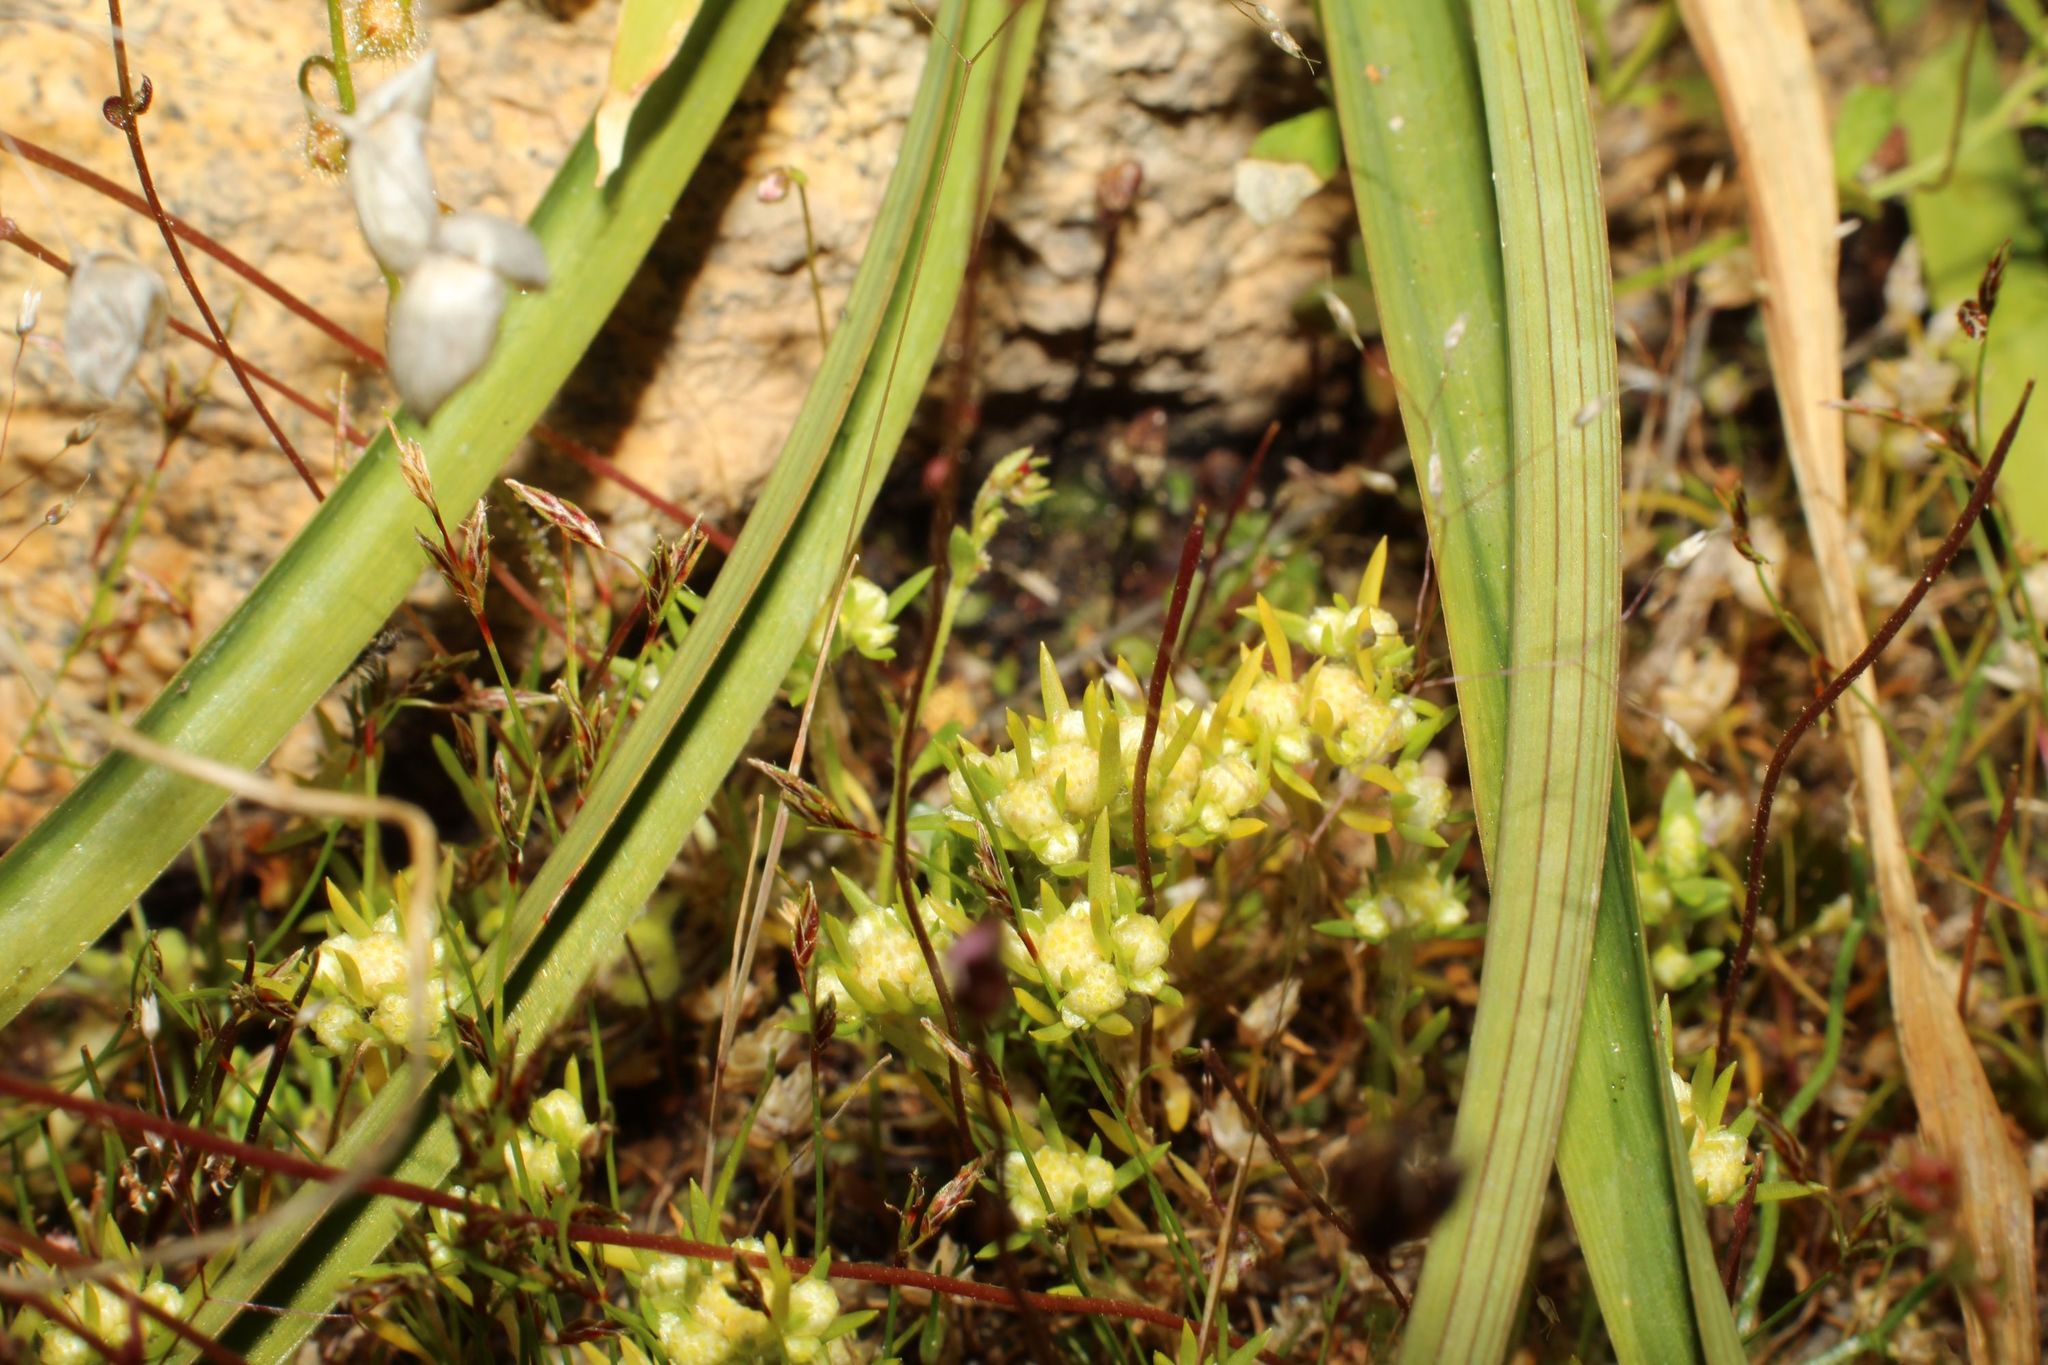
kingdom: Plantae
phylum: Tracheophyta
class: Magnoliopsida
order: Asterales
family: Asteraceae
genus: Siloxerus
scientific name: Siloxerus multiflorus
